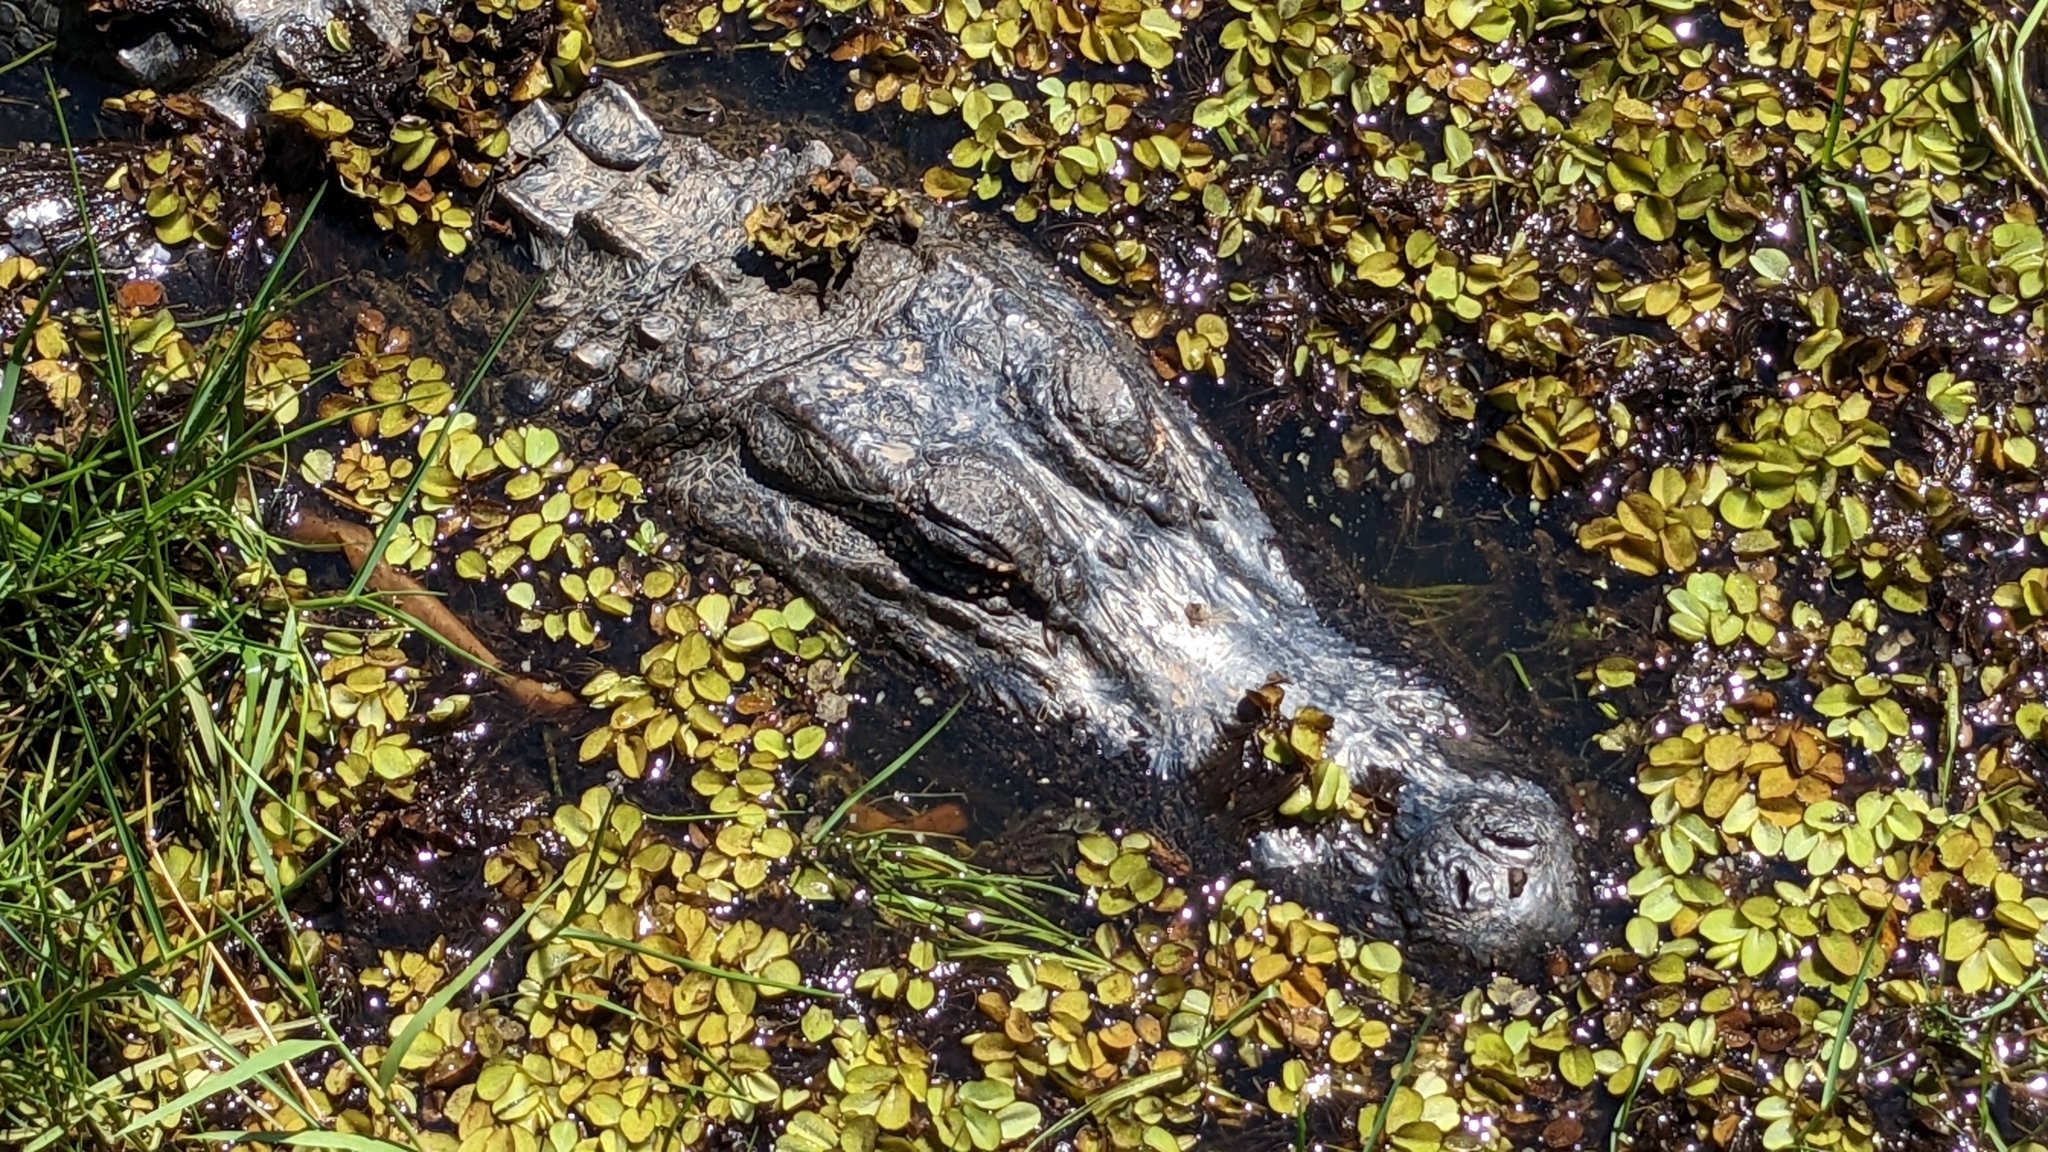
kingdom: Animalia
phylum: Chordata
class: Crocodylia
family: Alligatoridae
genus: Alligator
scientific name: Alligator mississippiensis
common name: American alligator
